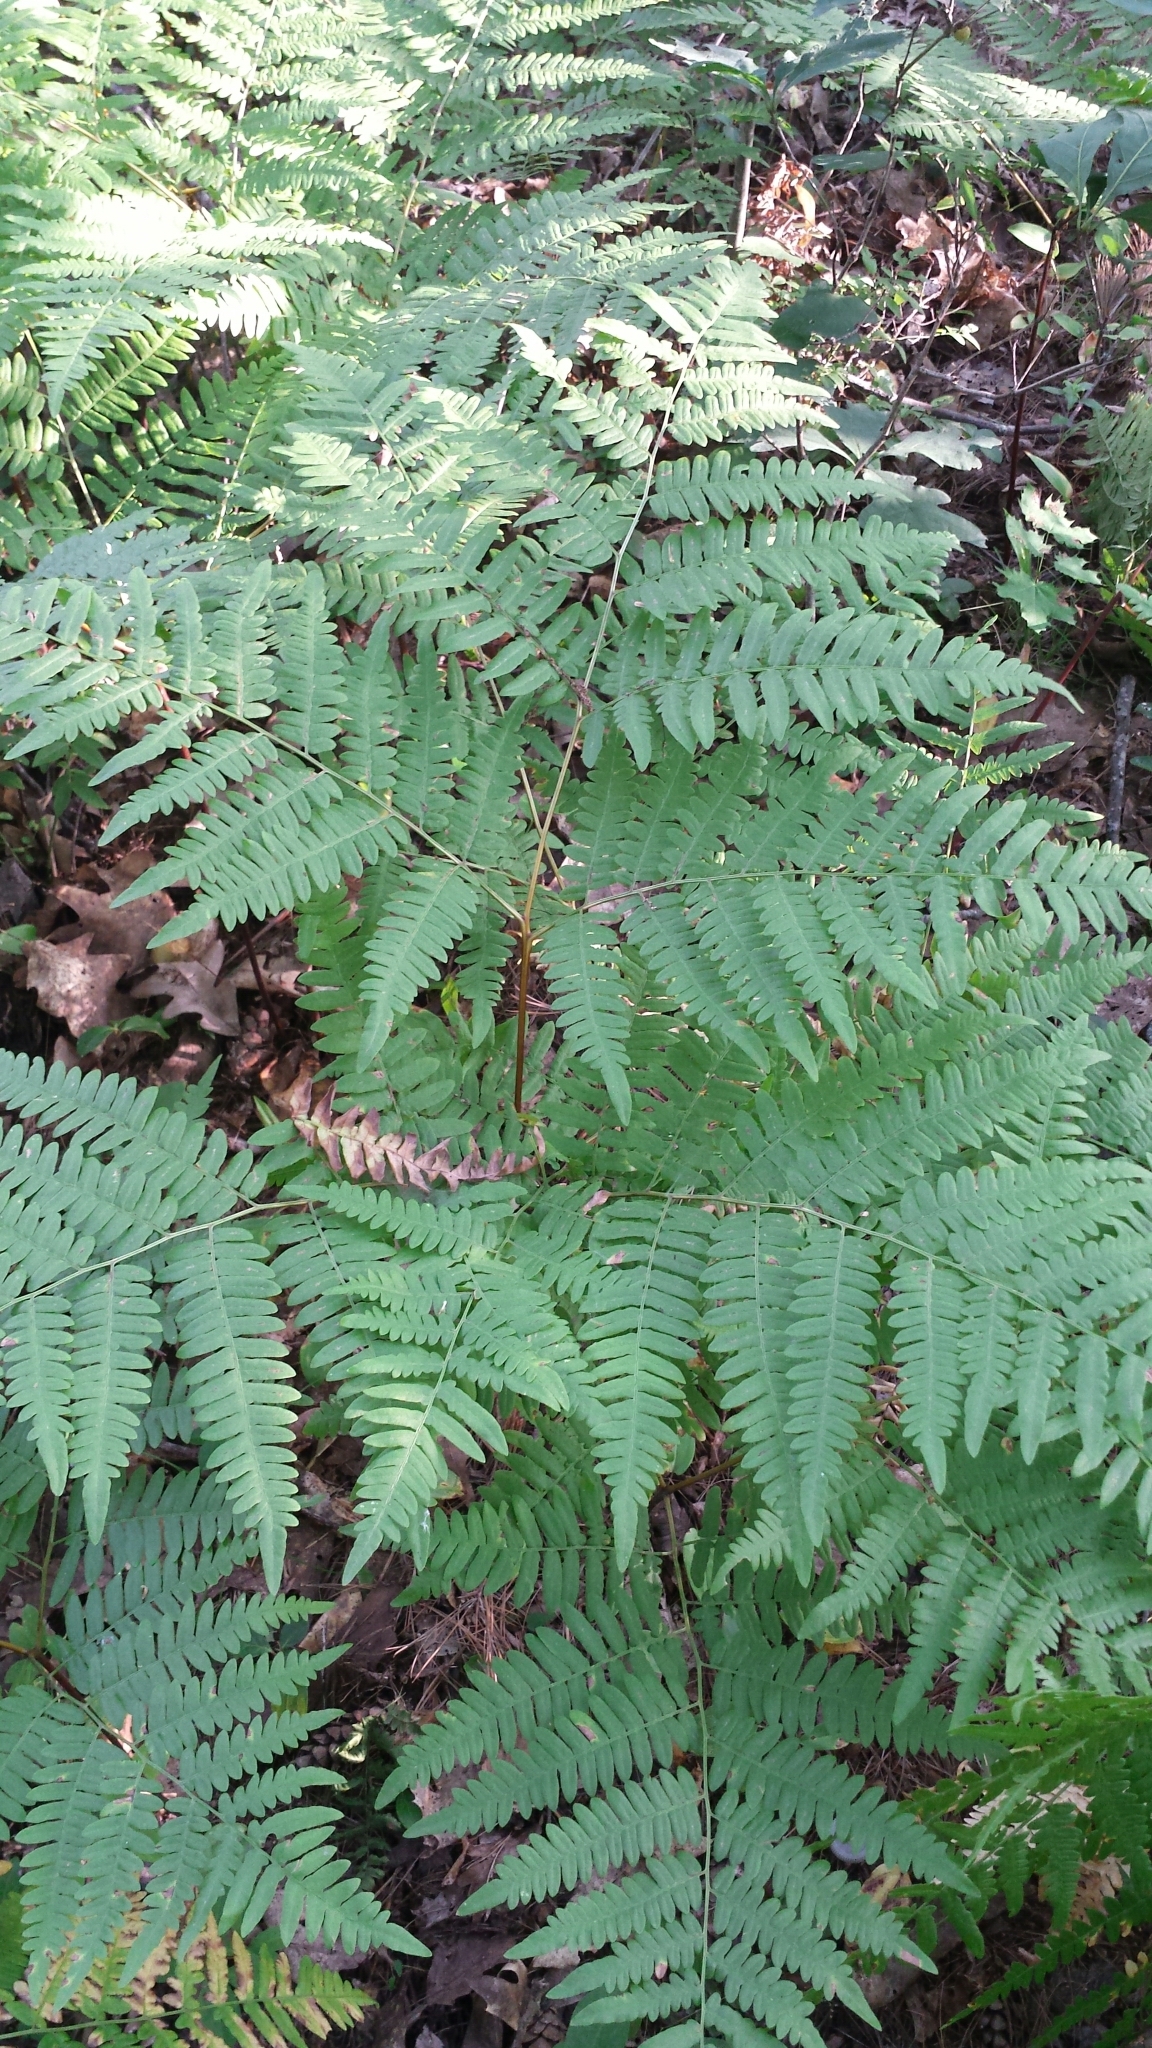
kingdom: Plantae
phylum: Tracheophyta
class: Polypodiopsida
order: Polypodiales
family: Dennstaedtiaceae
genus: Pteridium
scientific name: Pteridium aquilinum
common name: Bracken
